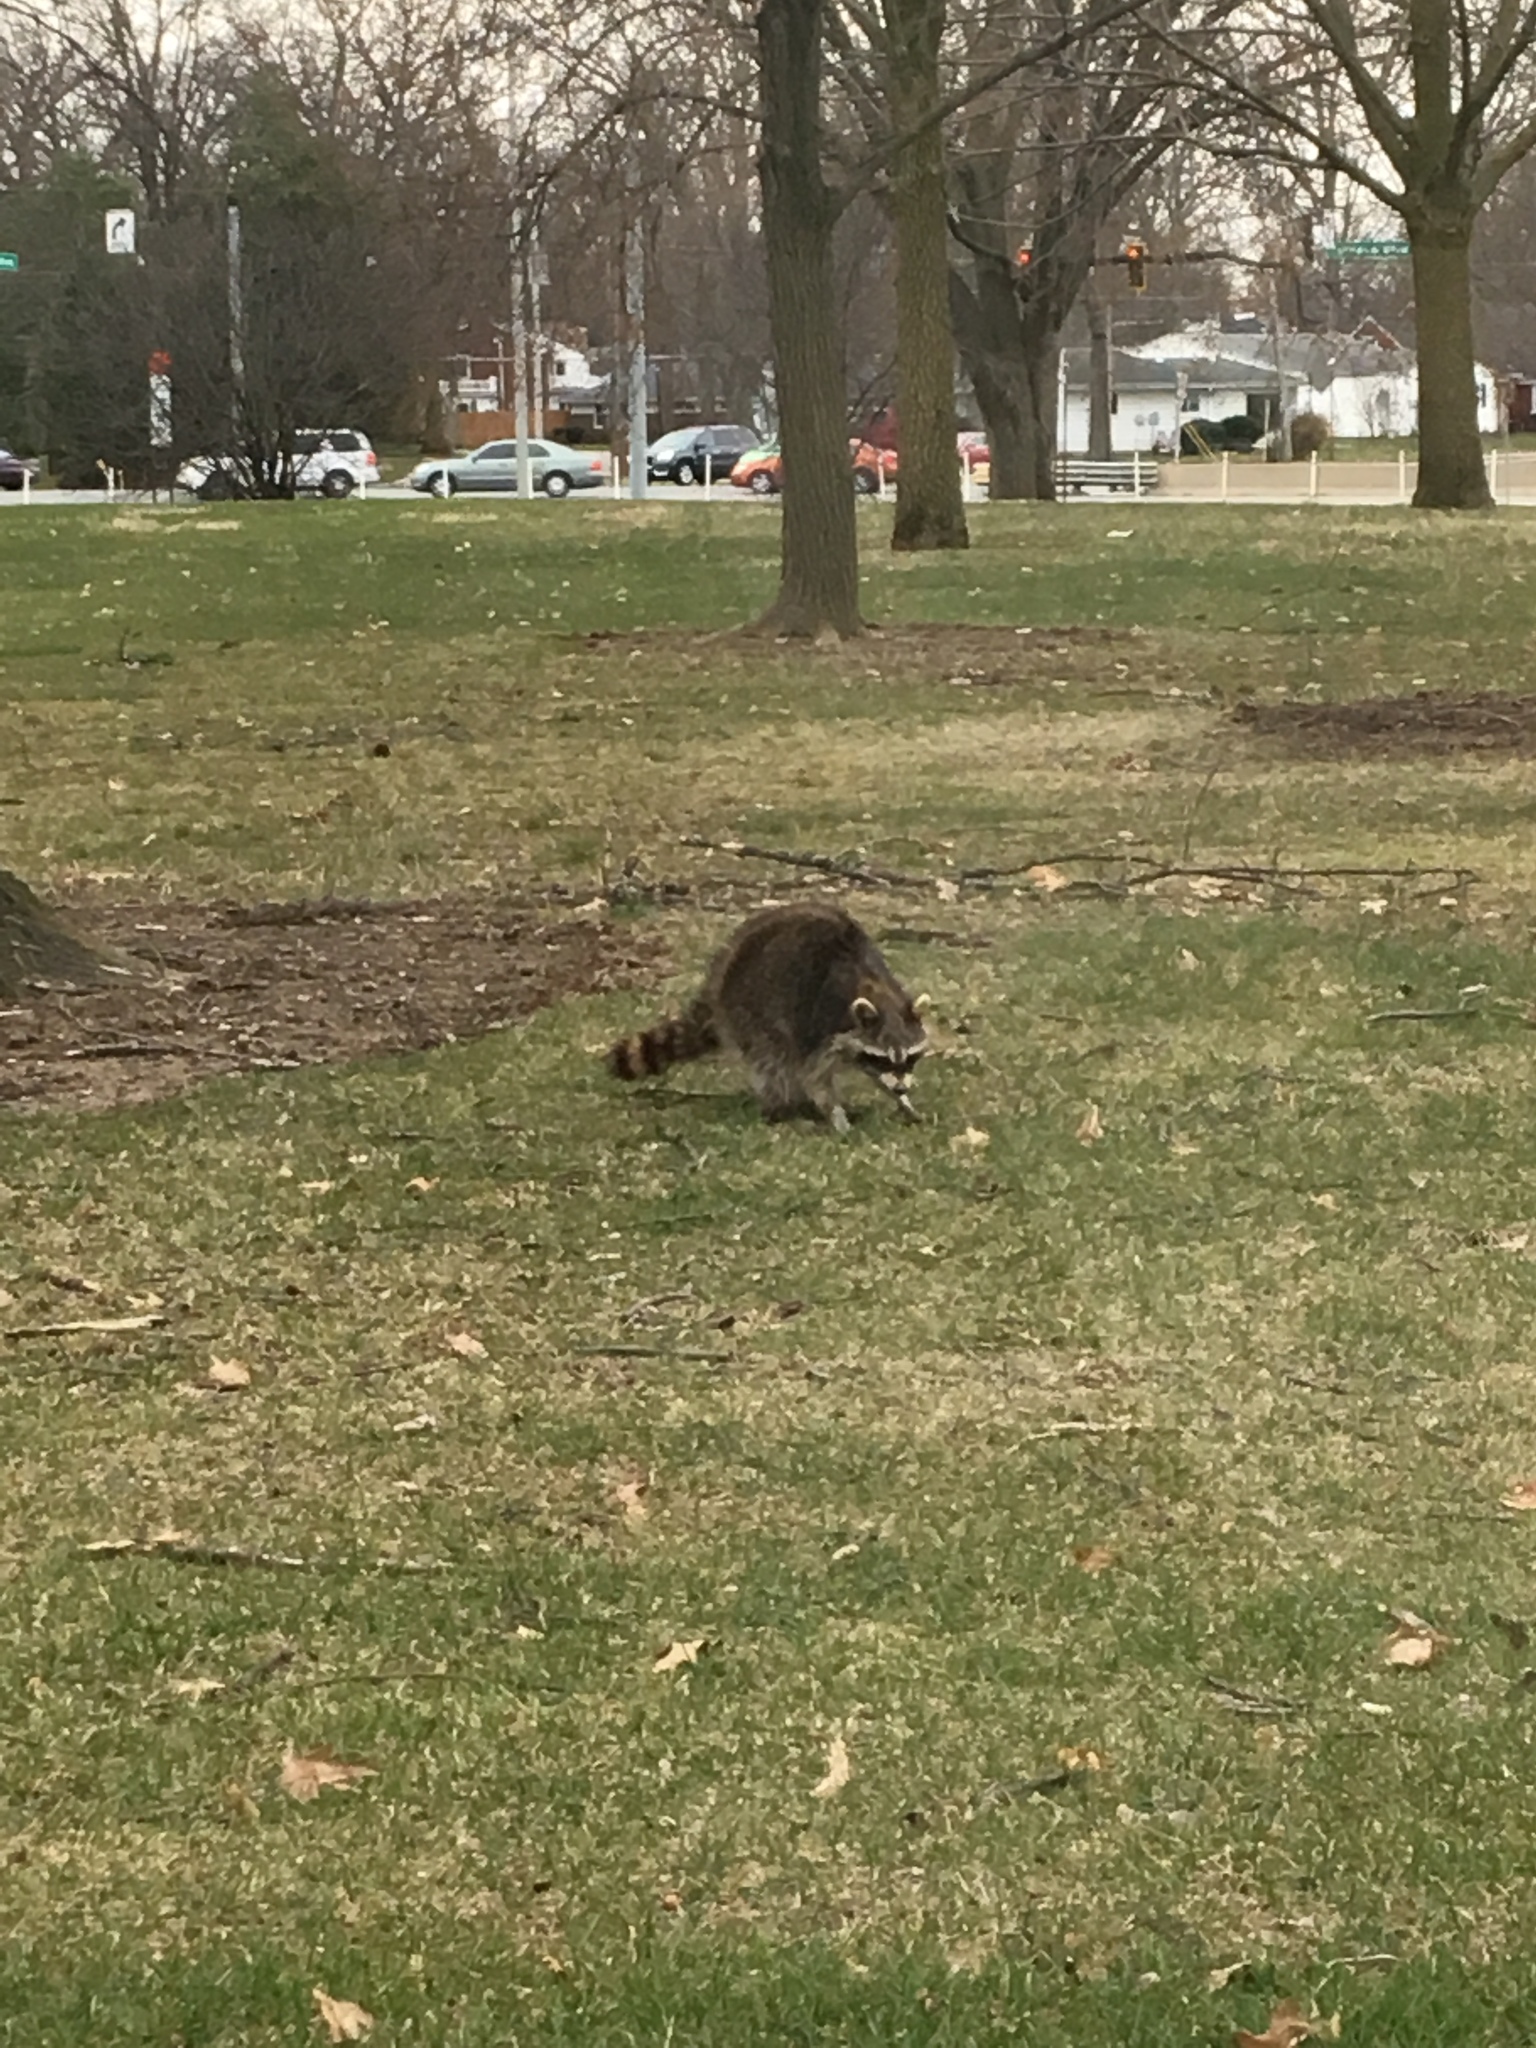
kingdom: Animalia
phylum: Chordata
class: Mammalia
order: Carnivora
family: Procyonidae
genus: Procyon
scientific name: Procyon lotor
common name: Raccoon
